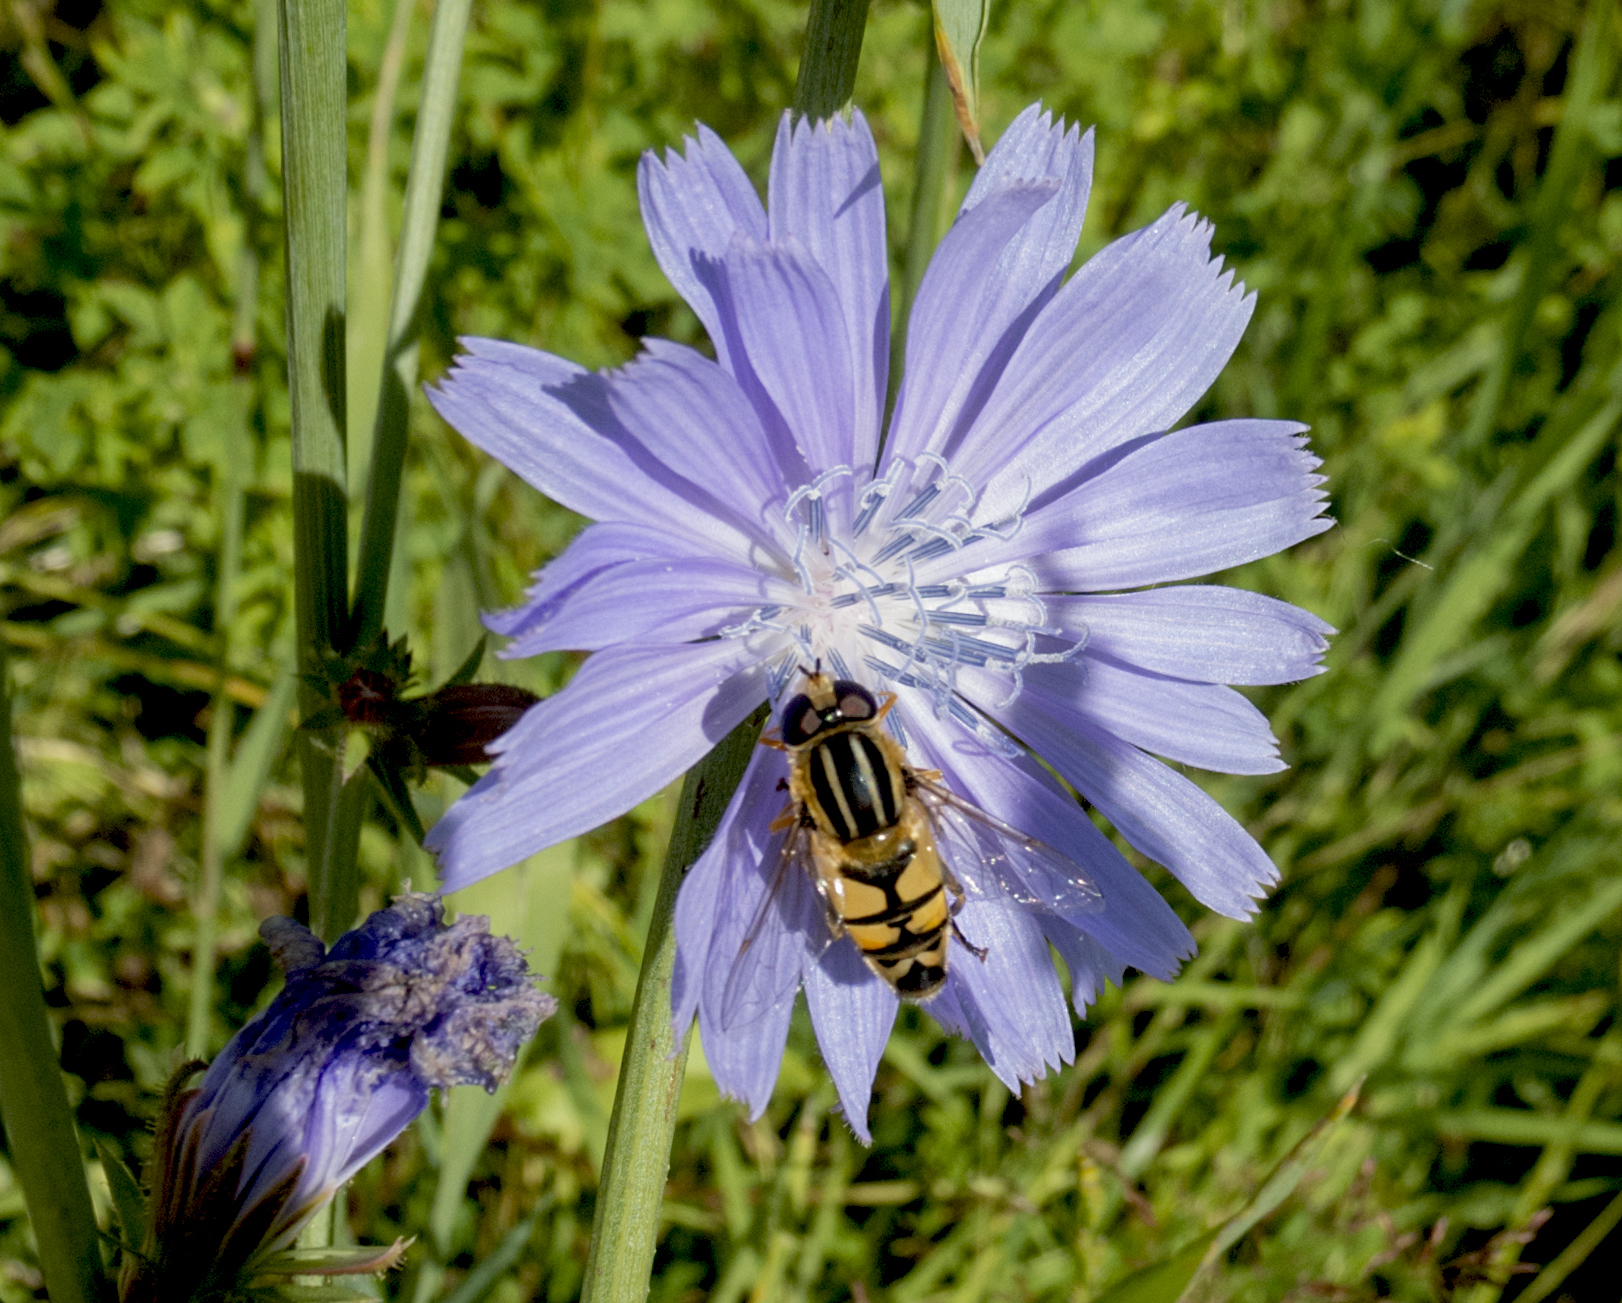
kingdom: Animalia
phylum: Arthropoda
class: Insecta
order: Diptera
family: Syrphidae
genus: Helophilus
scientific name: Helophilus trivittatus
